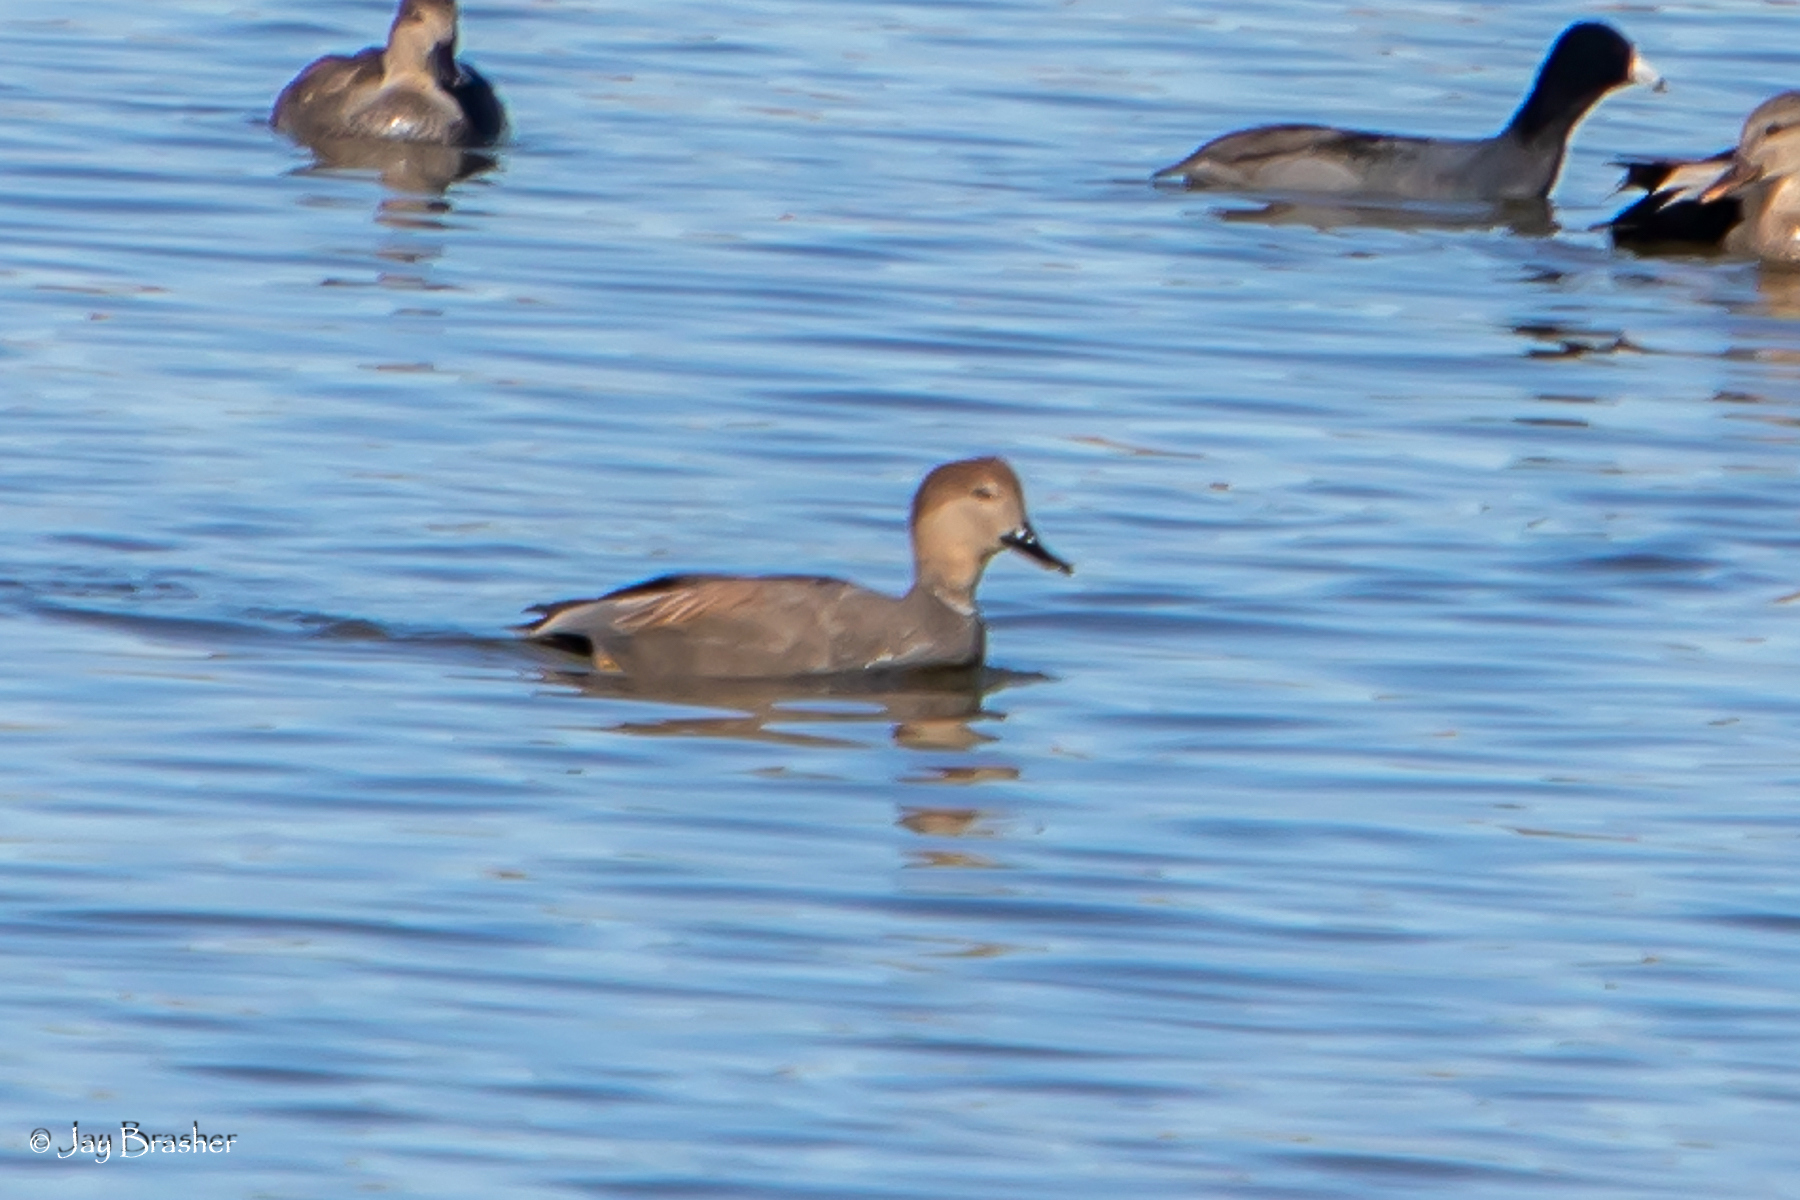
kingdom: Animalia
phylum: Chordata
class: Aves
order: Anseriformes
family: Anatidae
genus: Mareca
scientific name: Mareca strepera
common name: Gadwall
